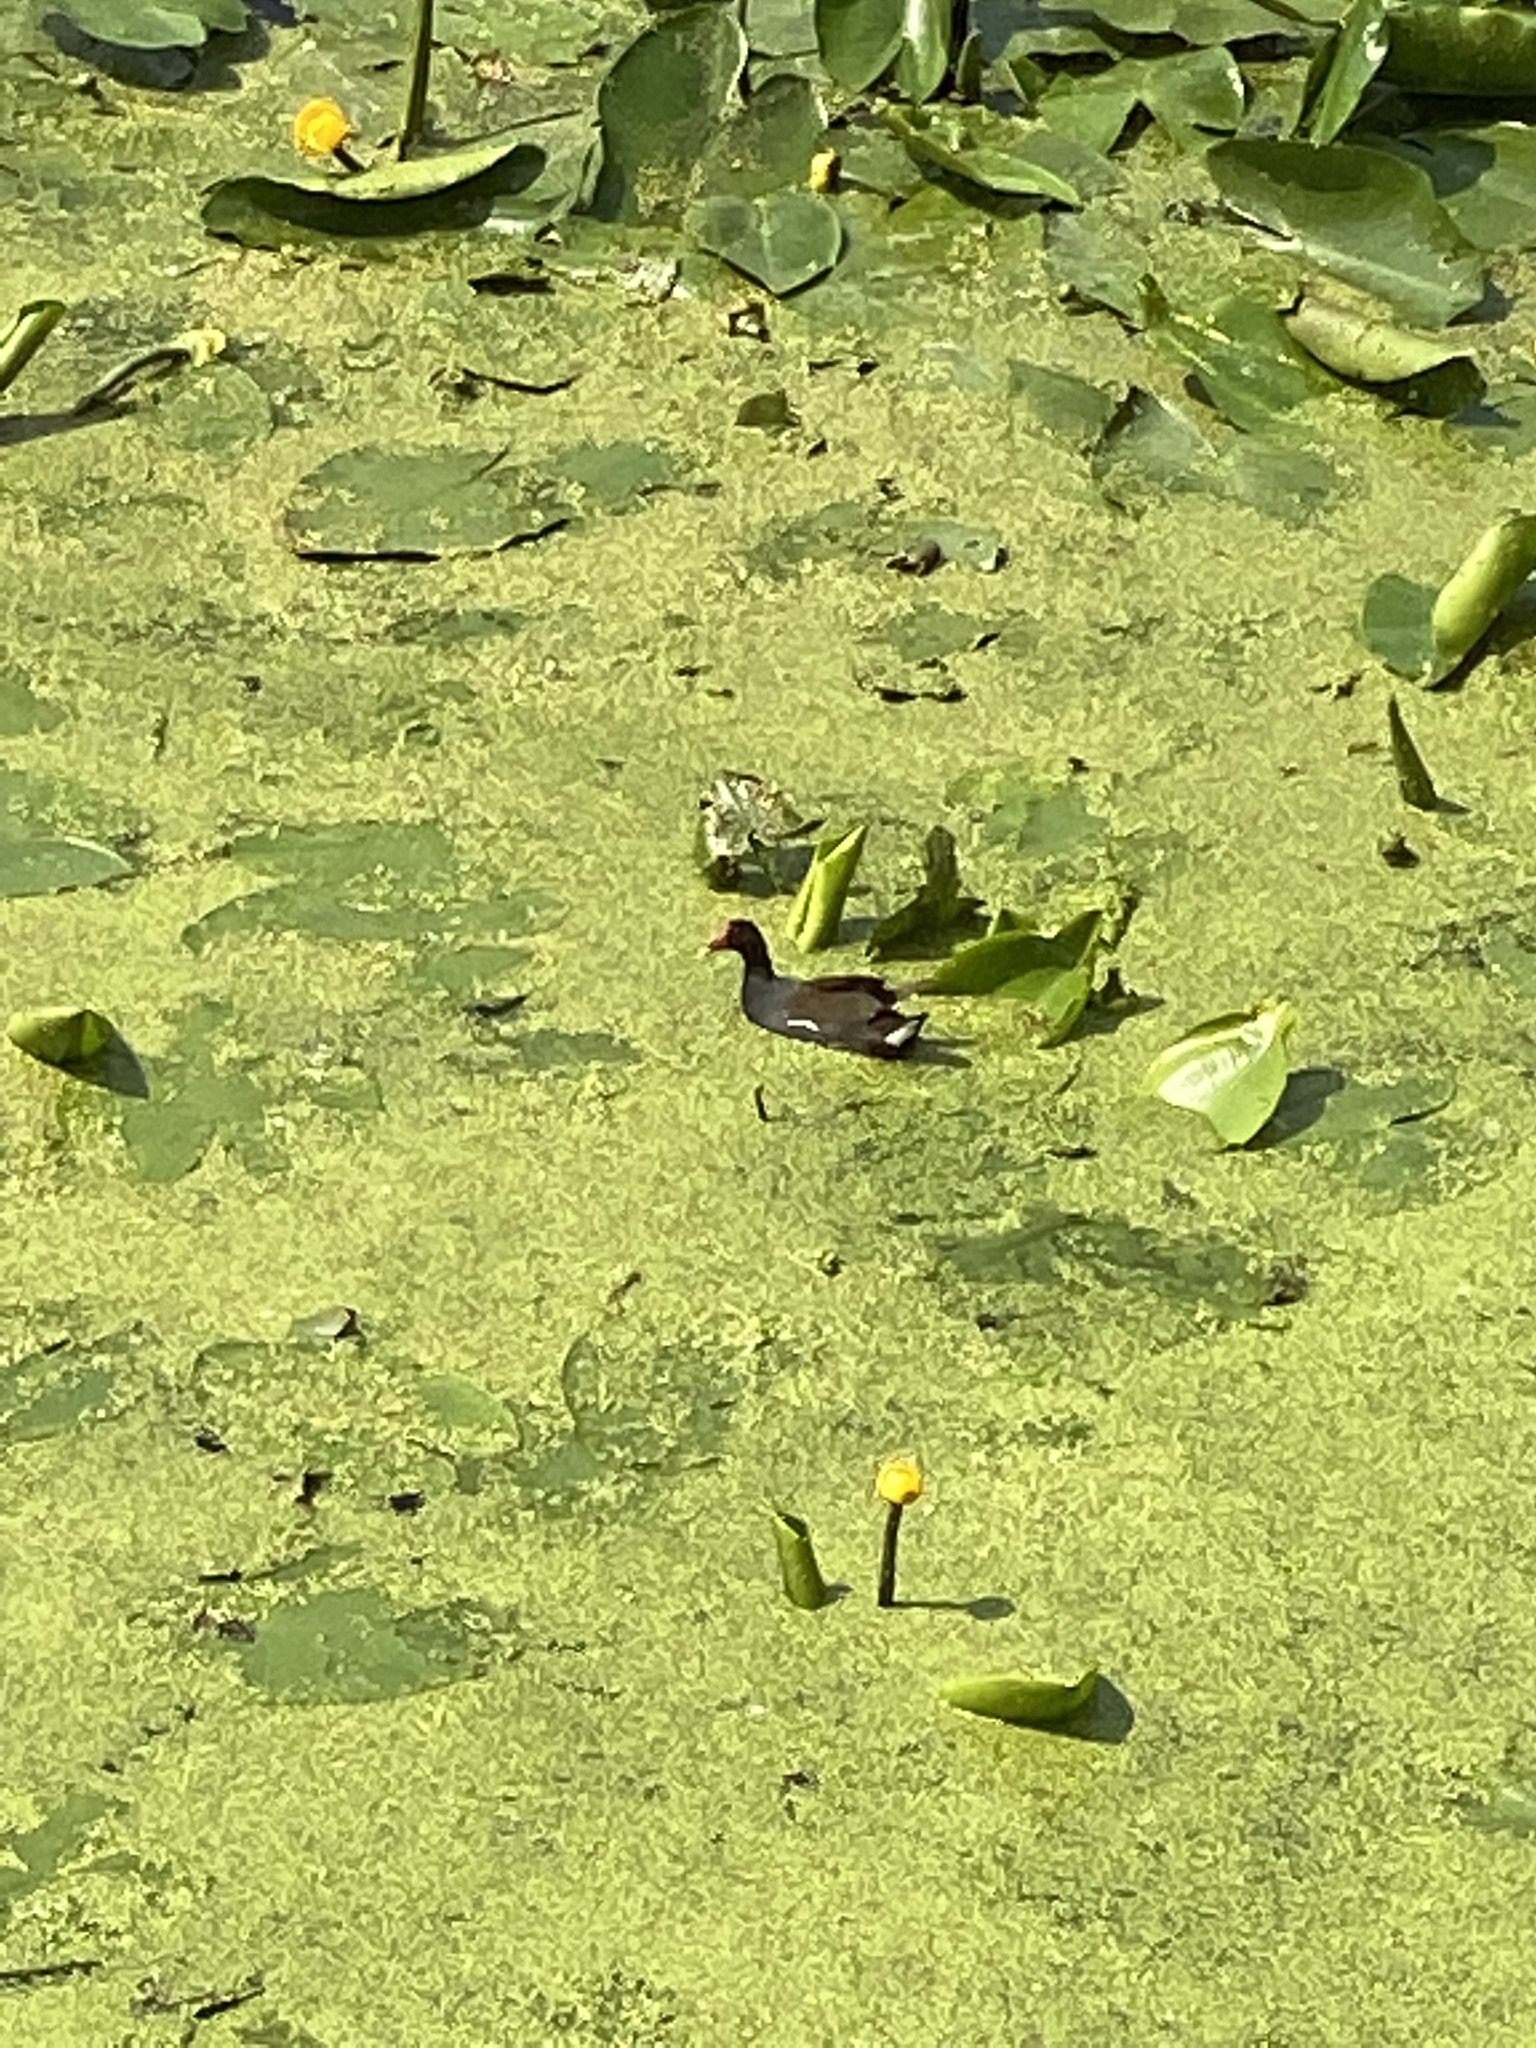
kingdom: Animalia
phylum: Chordata
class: Aves
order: Gruiformes
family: Rallidae
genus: Gallinula
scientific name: Gallinula chloropus
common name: Common moorhen
